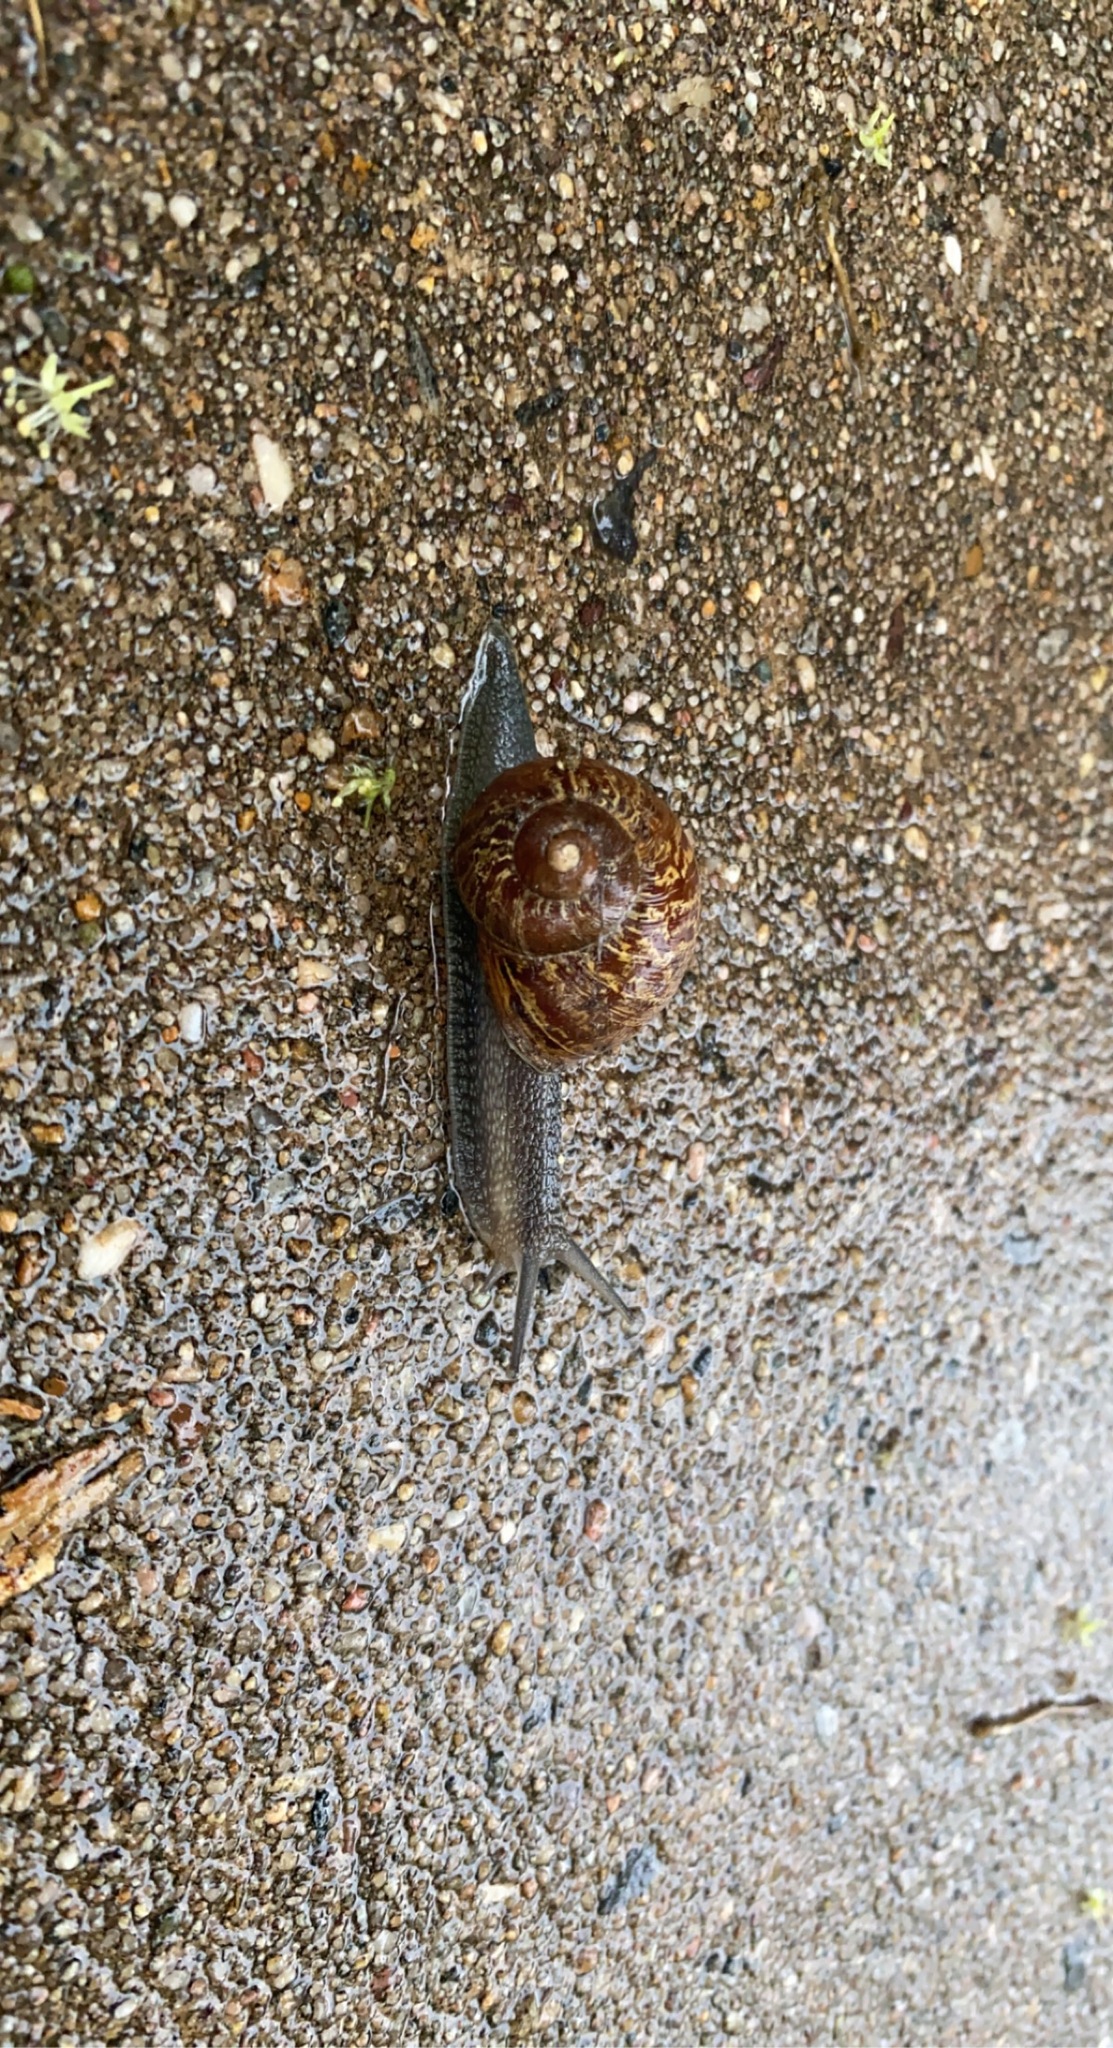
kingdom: Animalia
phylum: Mollusca
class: Gastropoda
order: Stylommatophora
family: Helicidae
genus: Cornu
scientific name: Cornu aspersum
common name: Brown garden snail
